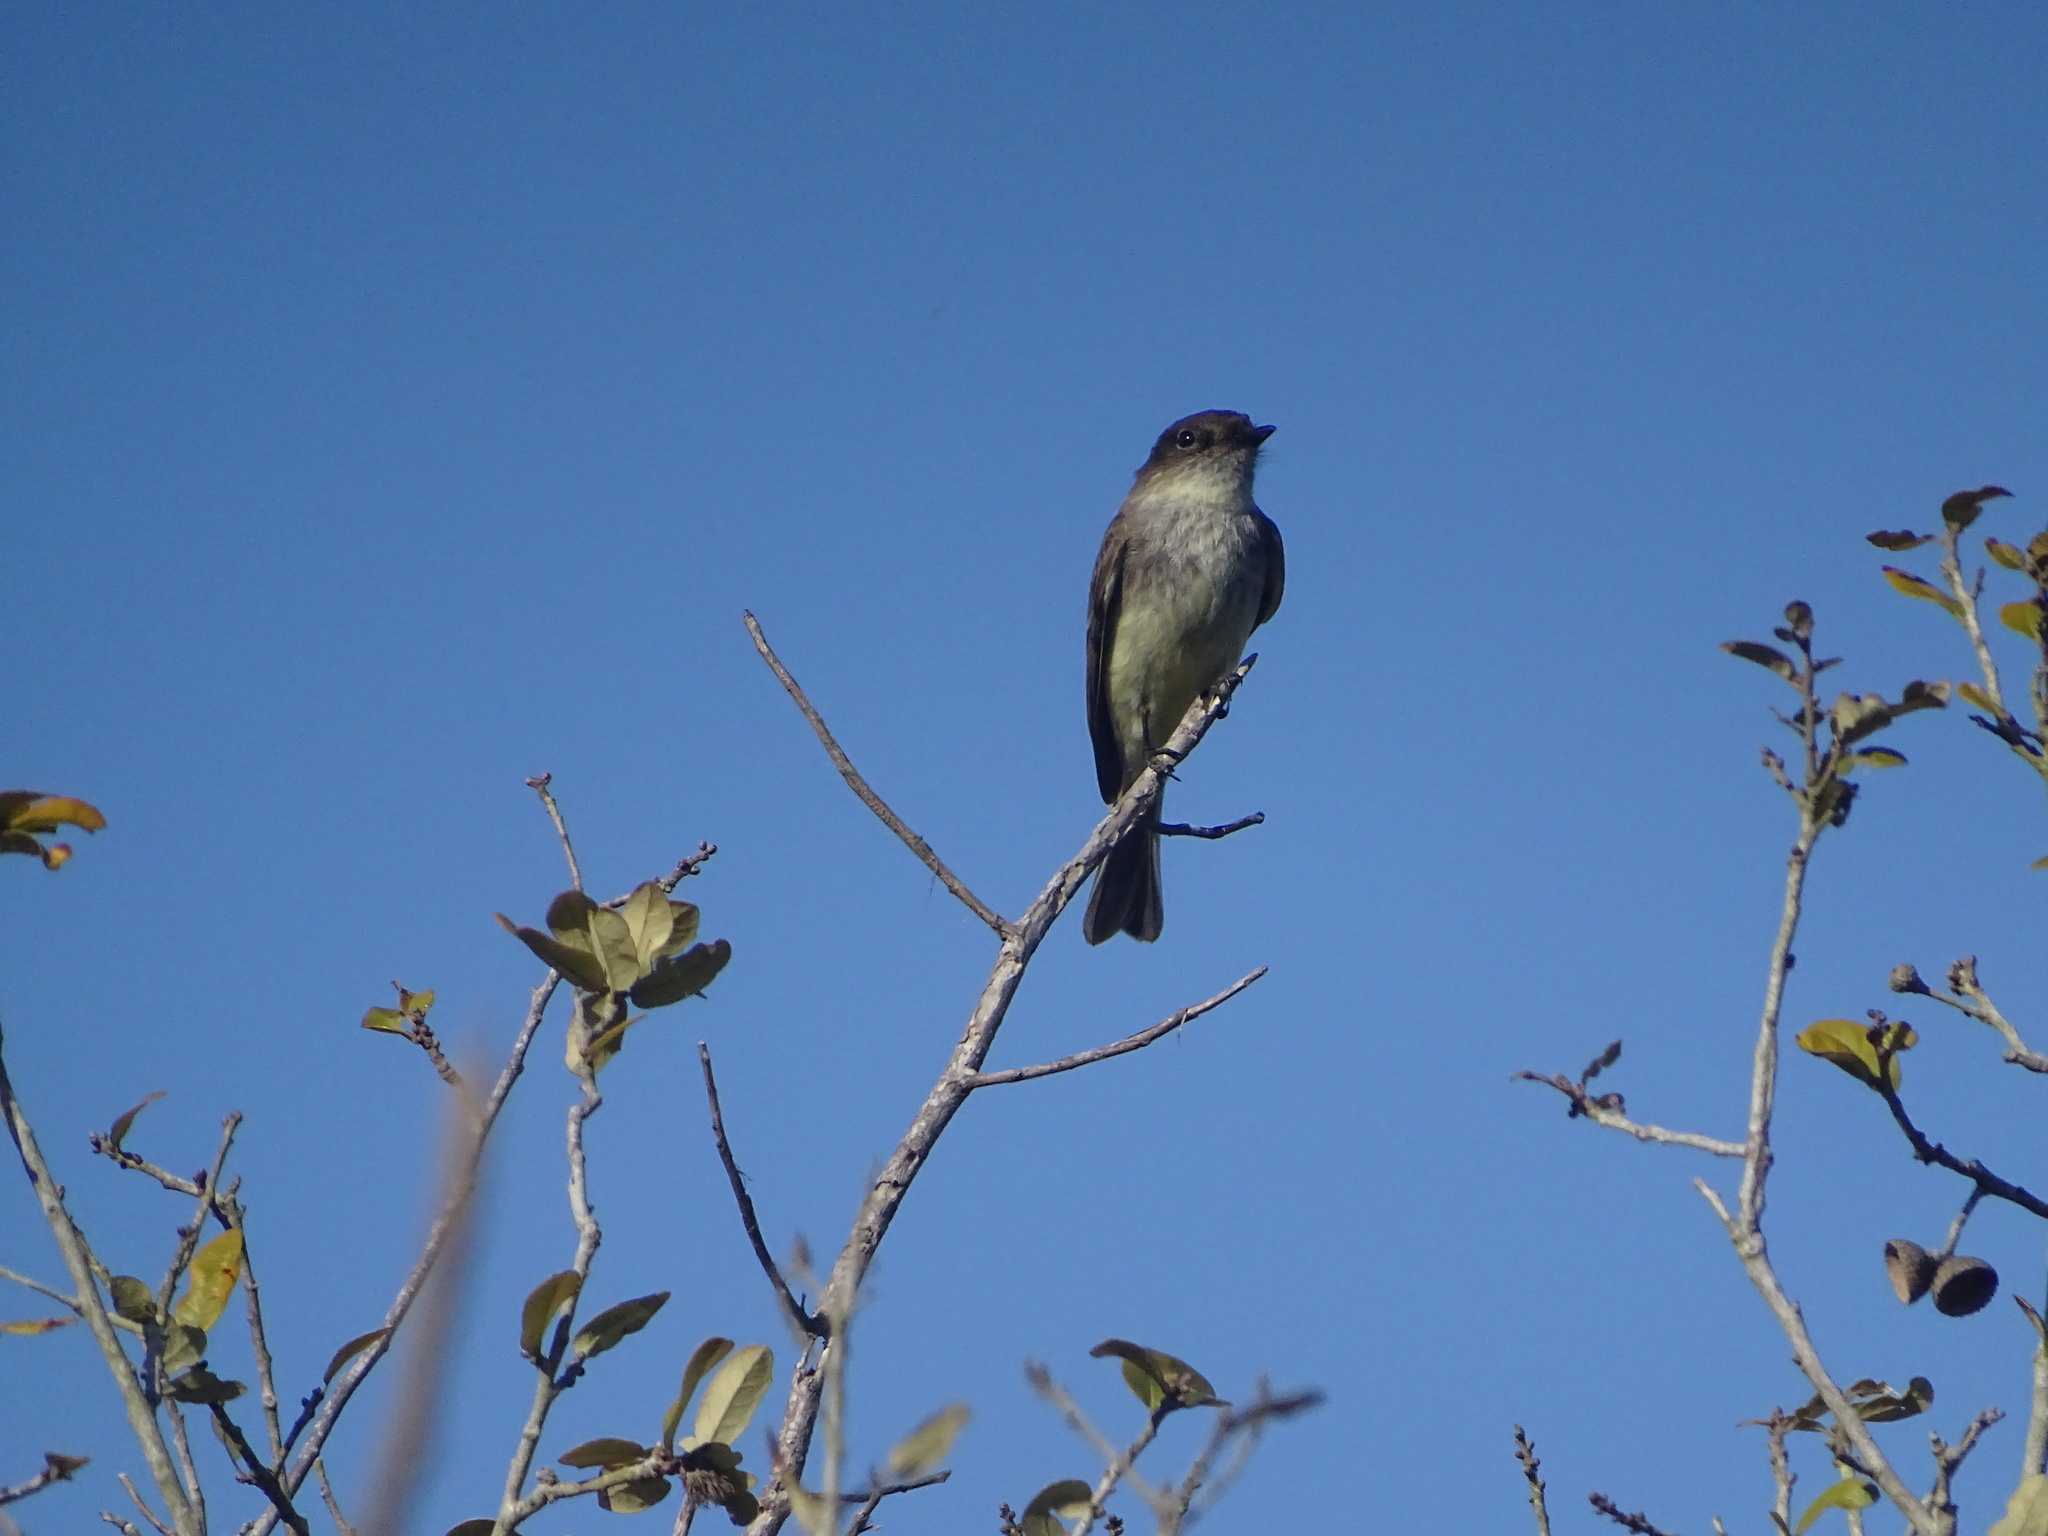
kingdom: Animalia
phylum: Chordata
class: Aves
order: Passeriformes
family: Tyrannidae
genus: Sayornis
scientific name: Sayornis phoebe
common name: Eastern phoebe
